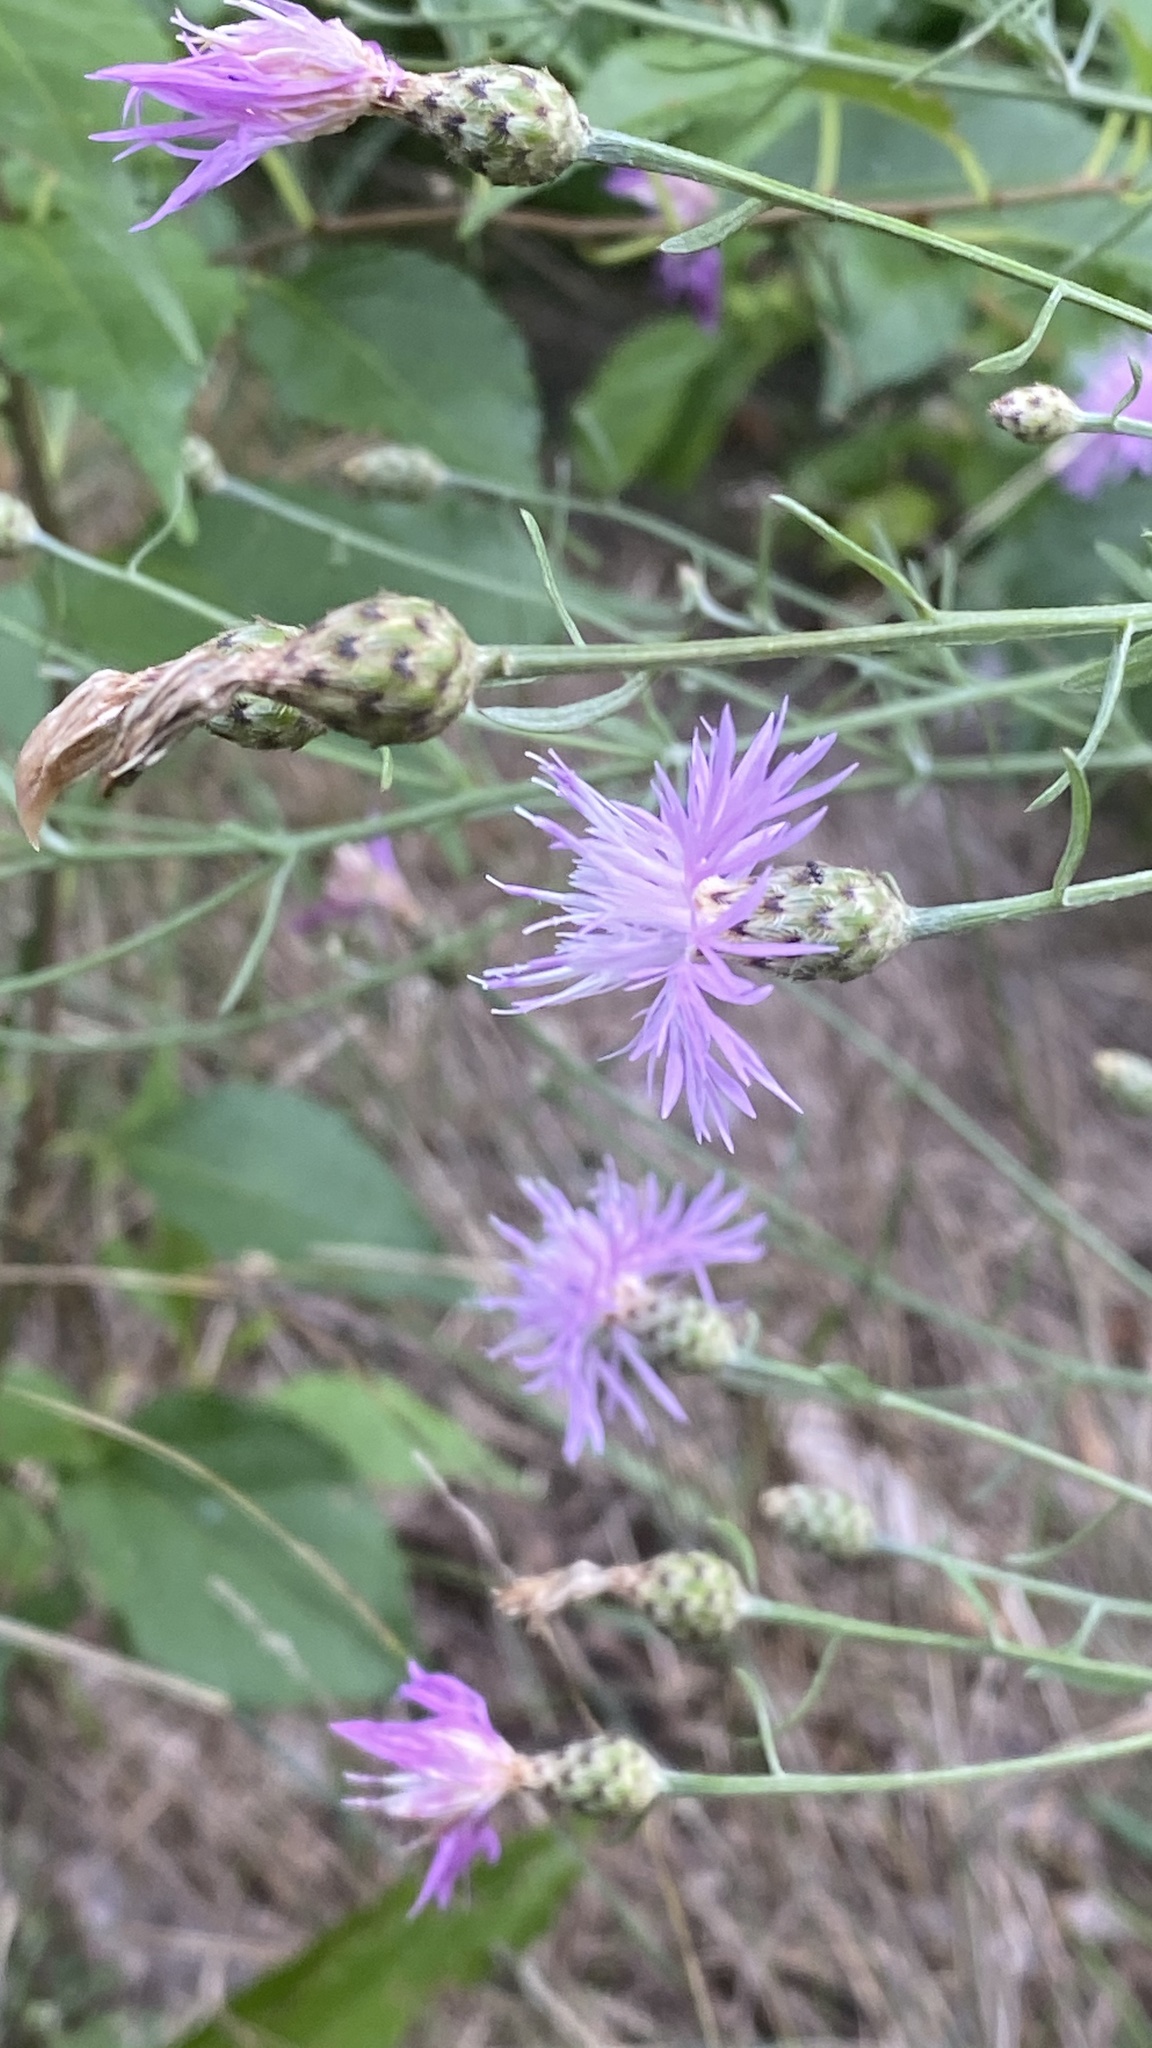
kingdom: Plantae
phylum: Tracheophyta
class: Magnoliopsida
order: Asterales
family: Asteraceae
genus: Centaurea
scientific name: Centaurea stoebe
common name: Spotted knapweed
